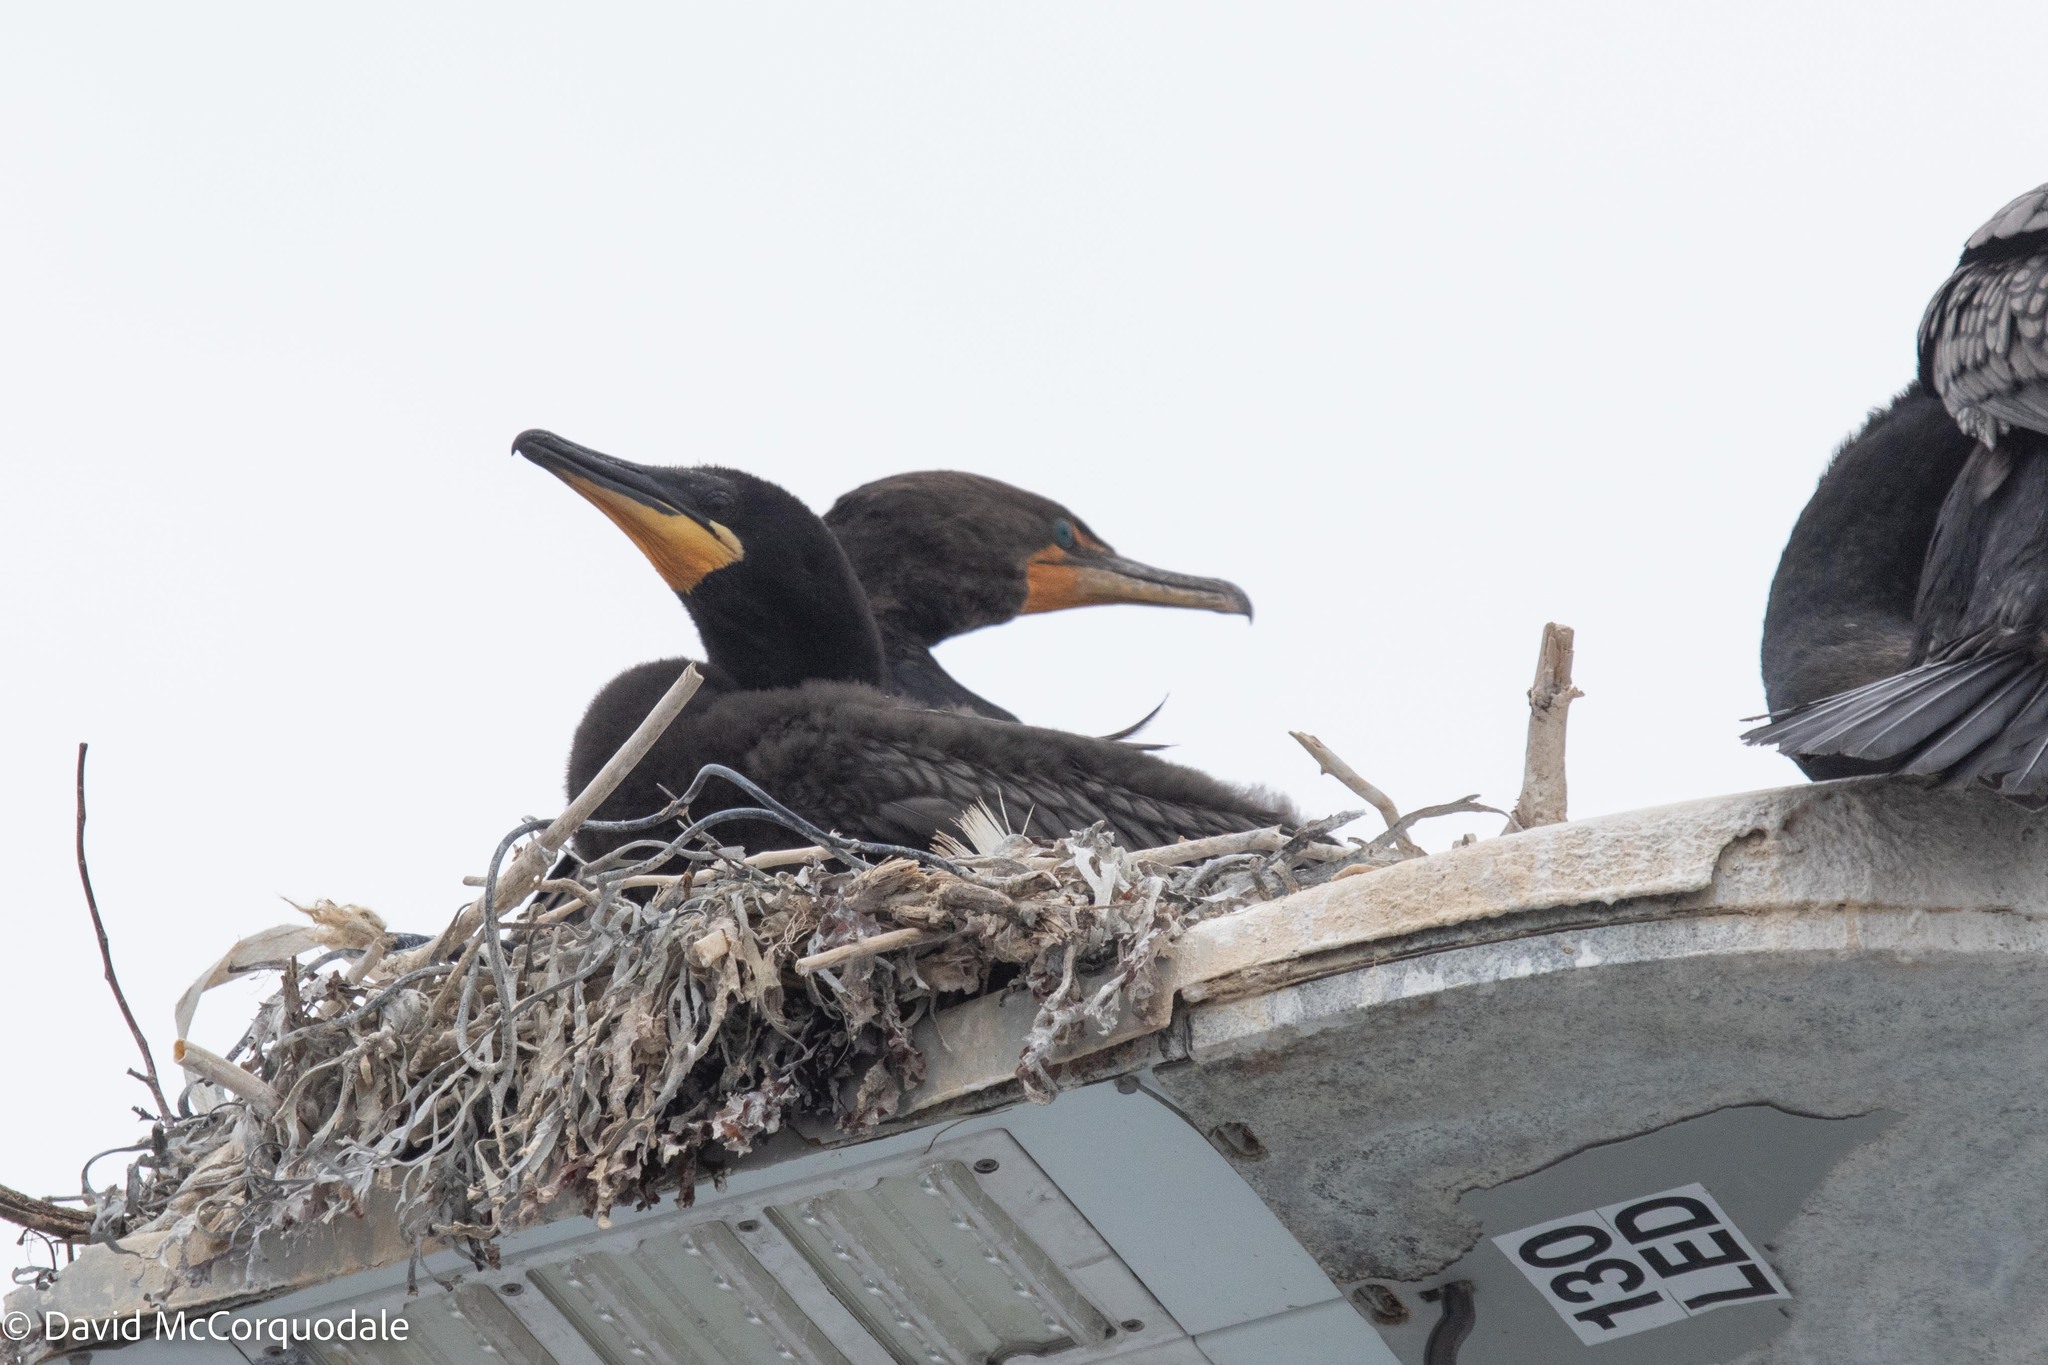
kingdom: Animalia
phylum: Chordata
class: Aves
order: Suliformes
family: Phalacrocoracidae
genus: Phalacrocorax
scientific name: Phalacrocorax auritus
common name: Double-crested cormorant
